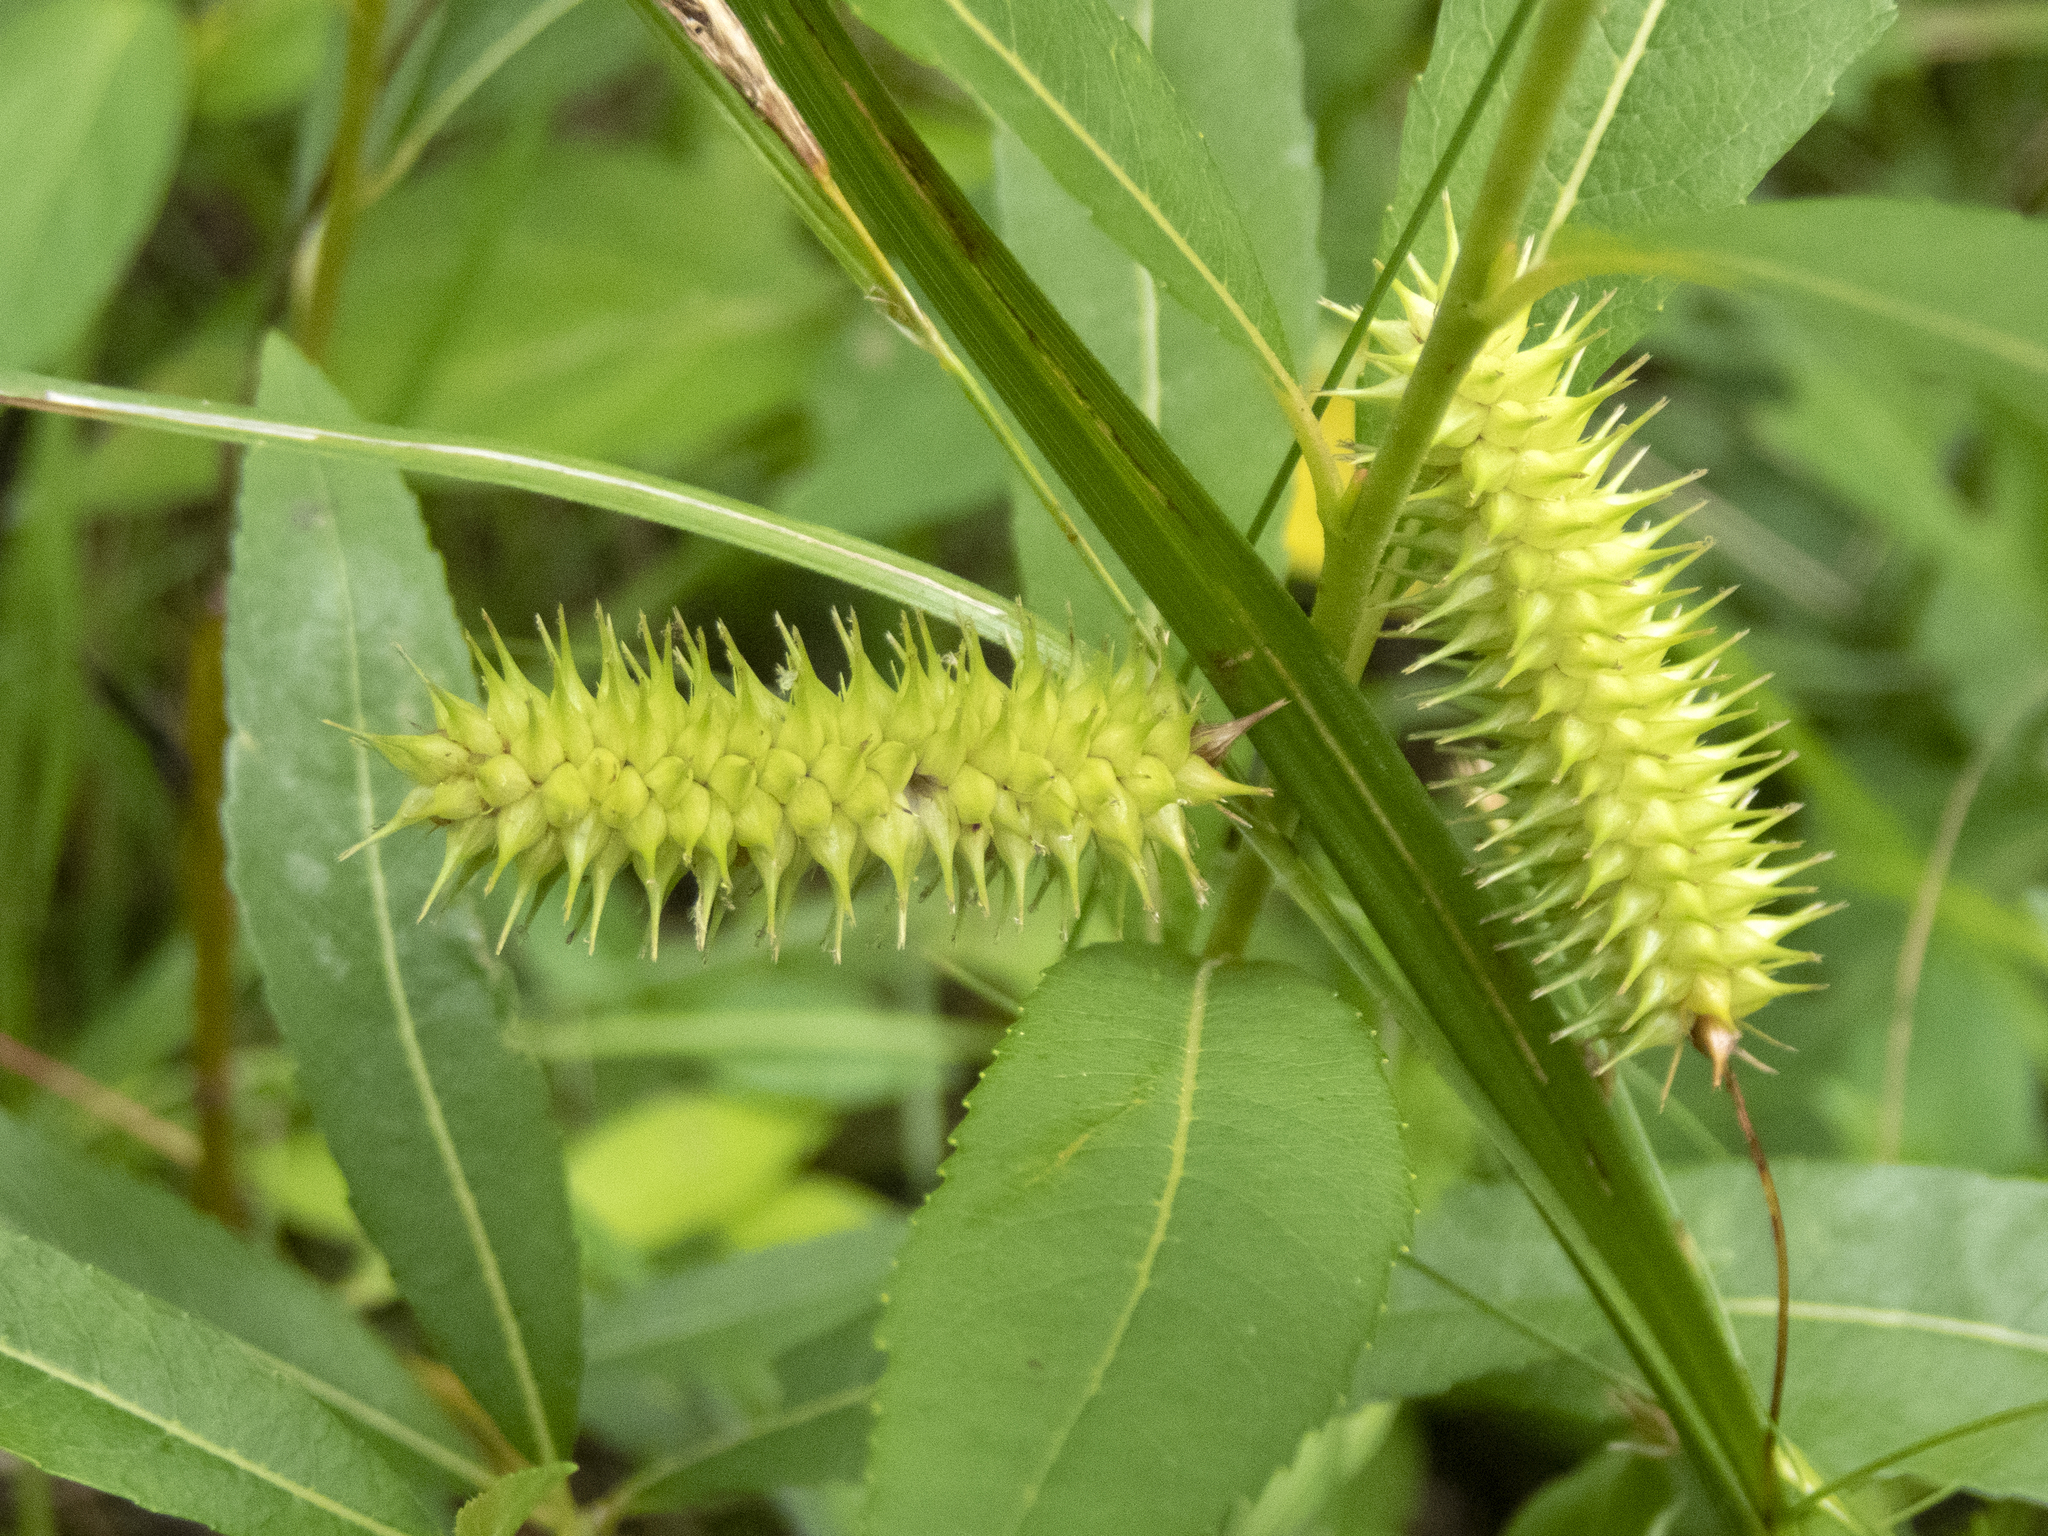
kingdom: Plantae
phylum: Tracheophyta
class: Liliopsida
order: Poales
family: Cyperaceae
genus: Carex
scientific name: Carex hystericina
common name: Bottlebrush sedge
